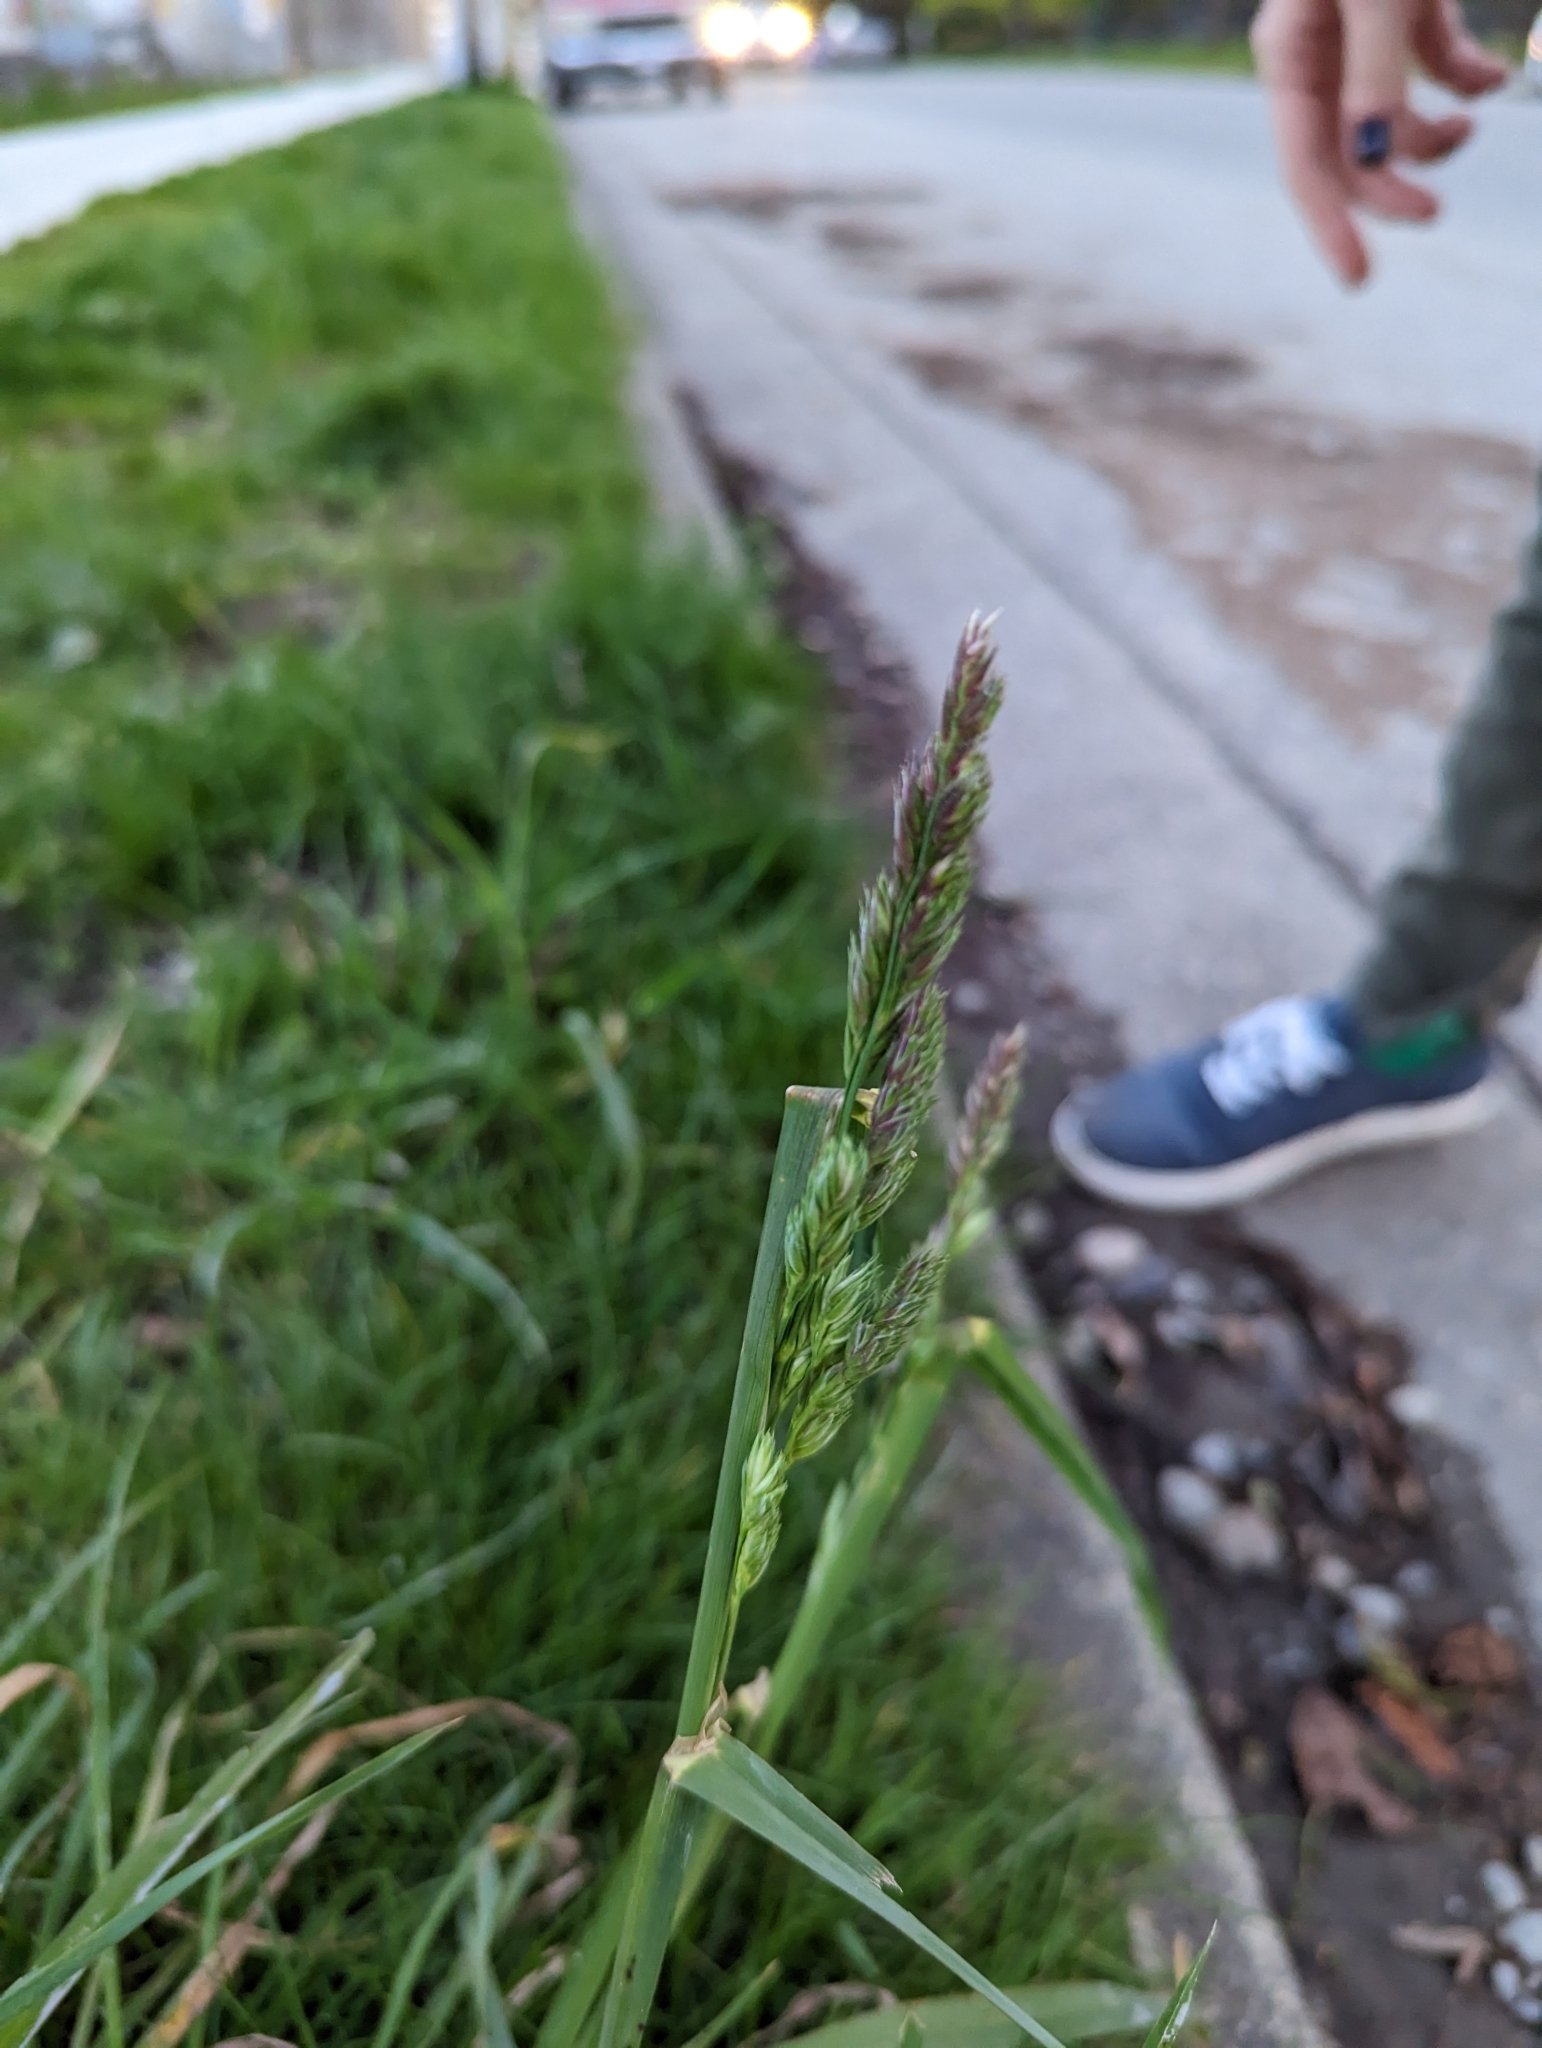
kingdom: Plantae
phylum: Tracheophyta
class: Liliopsida
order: Poales
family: Poaceae
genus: Dactylis
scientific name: Dactylis glomerata
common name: Orchardgrass
